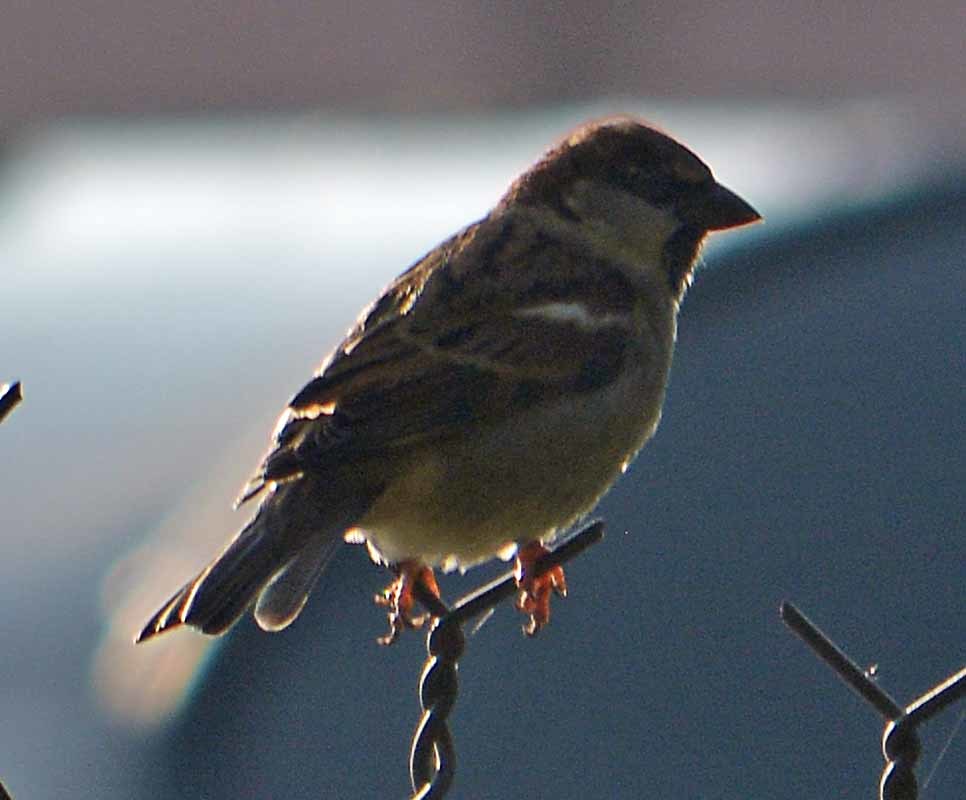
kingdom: Animalia
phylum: Chordata
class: Aves
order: Passeriformes
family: Passeridae
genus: Passer
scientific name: Passer domesticus
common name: House sparrow
